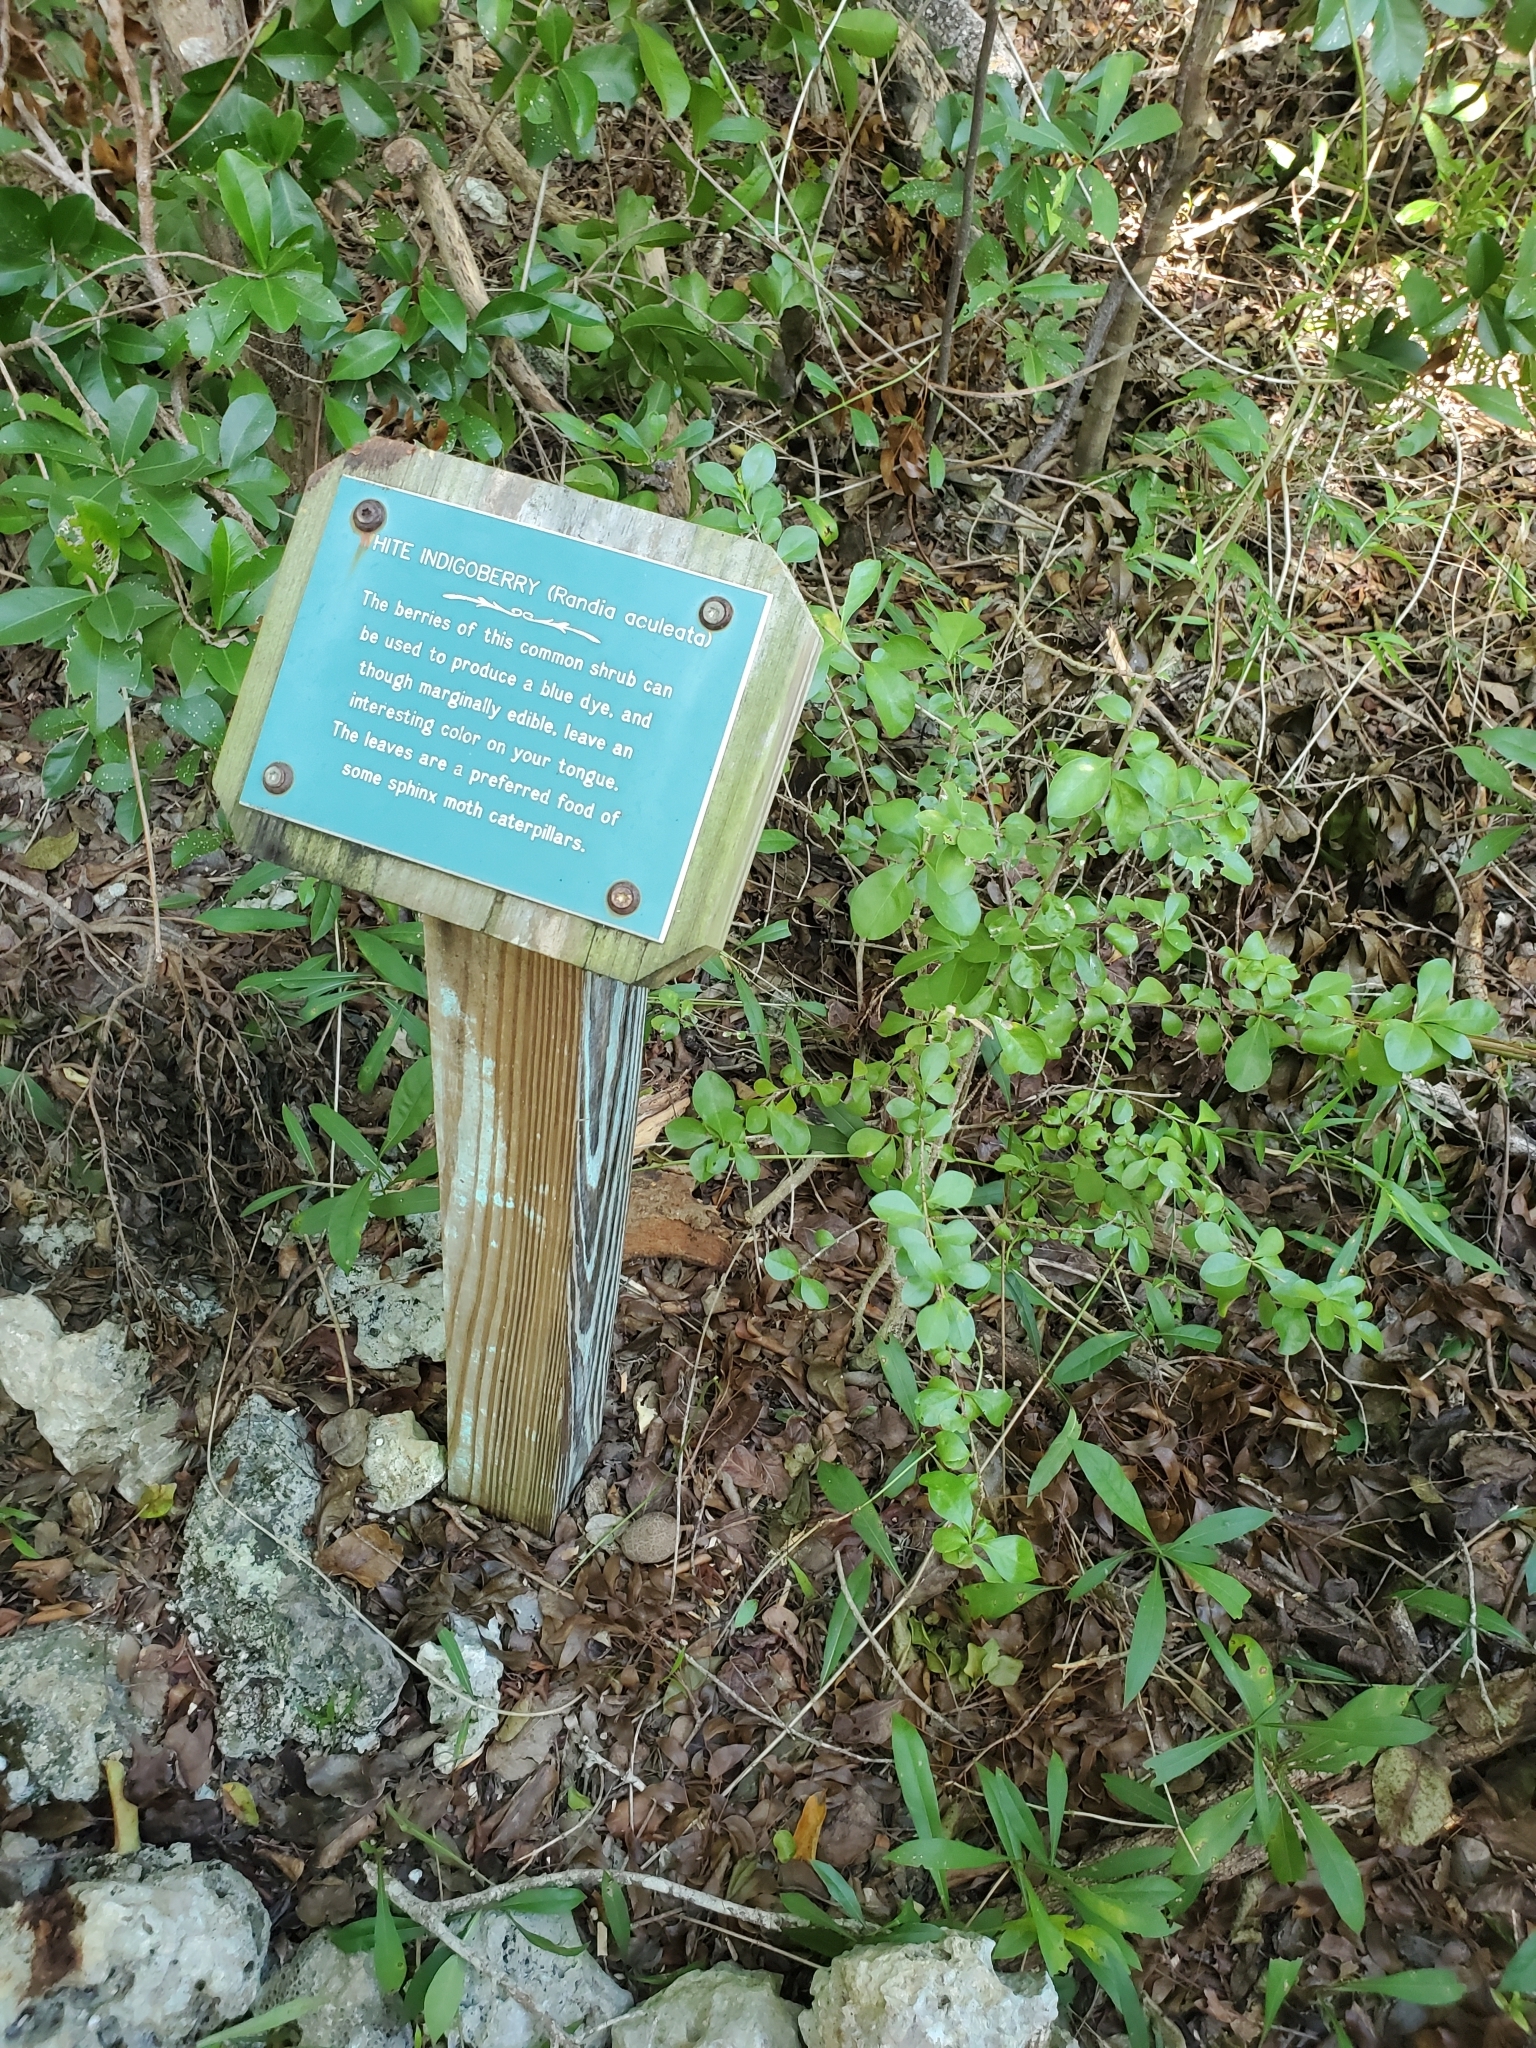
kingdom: Plantae
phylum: Tracheophyta
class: Magnoliopsida
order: Gentianales
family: Rubiaceae
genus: Randia
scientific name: Randia aculeata
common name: Inkberry
